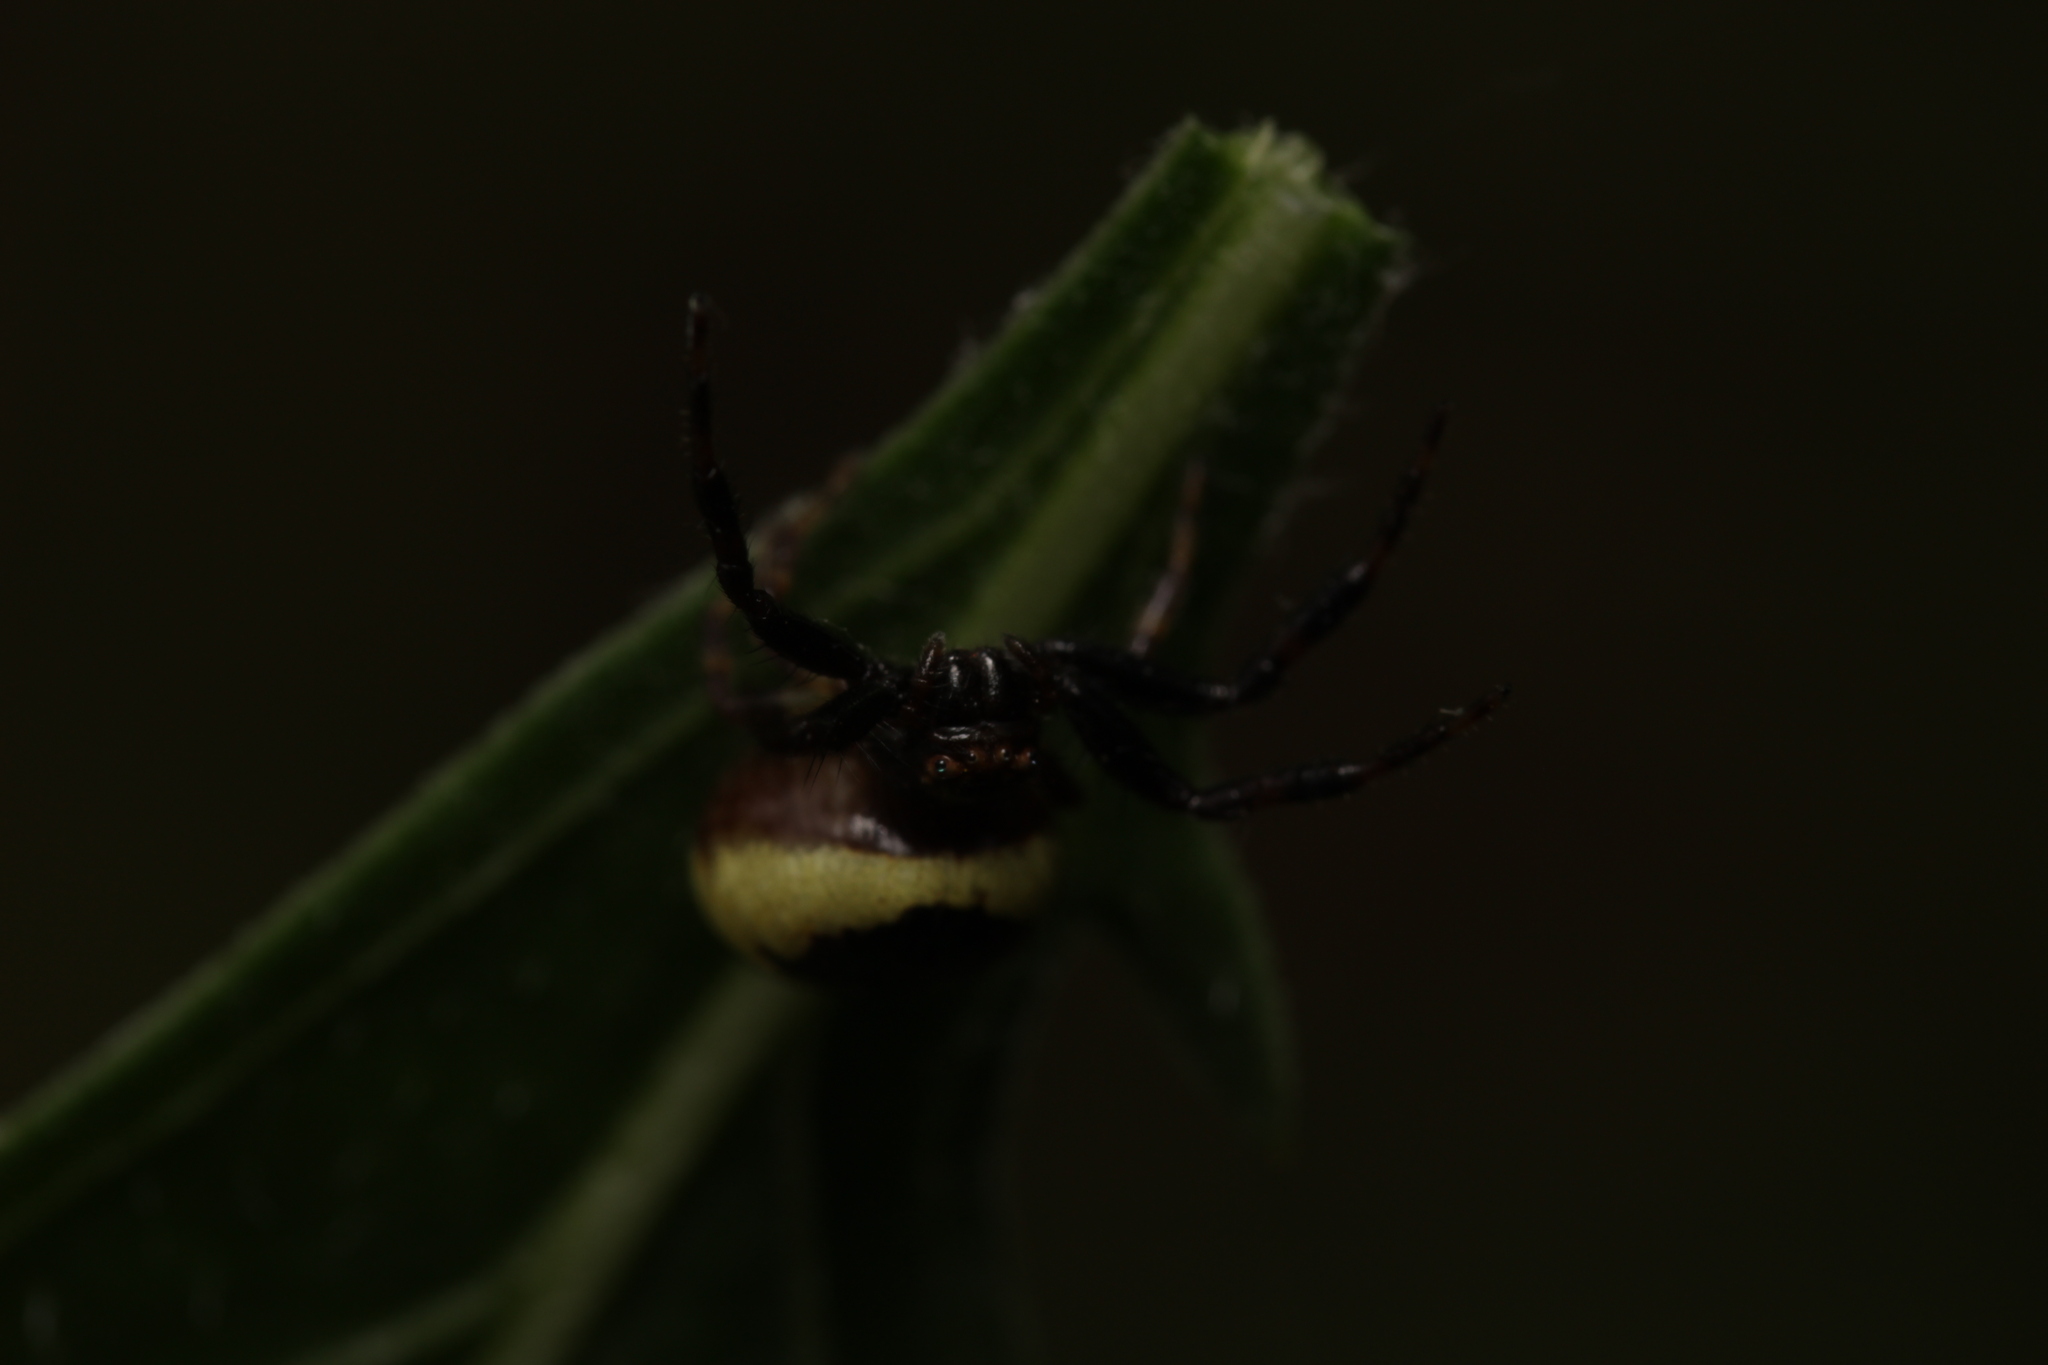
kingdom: Animalia
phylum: Arthropoda
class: Arachnida
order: Araneae
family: Thomisidae
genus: Synema
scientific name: Synema globosum
